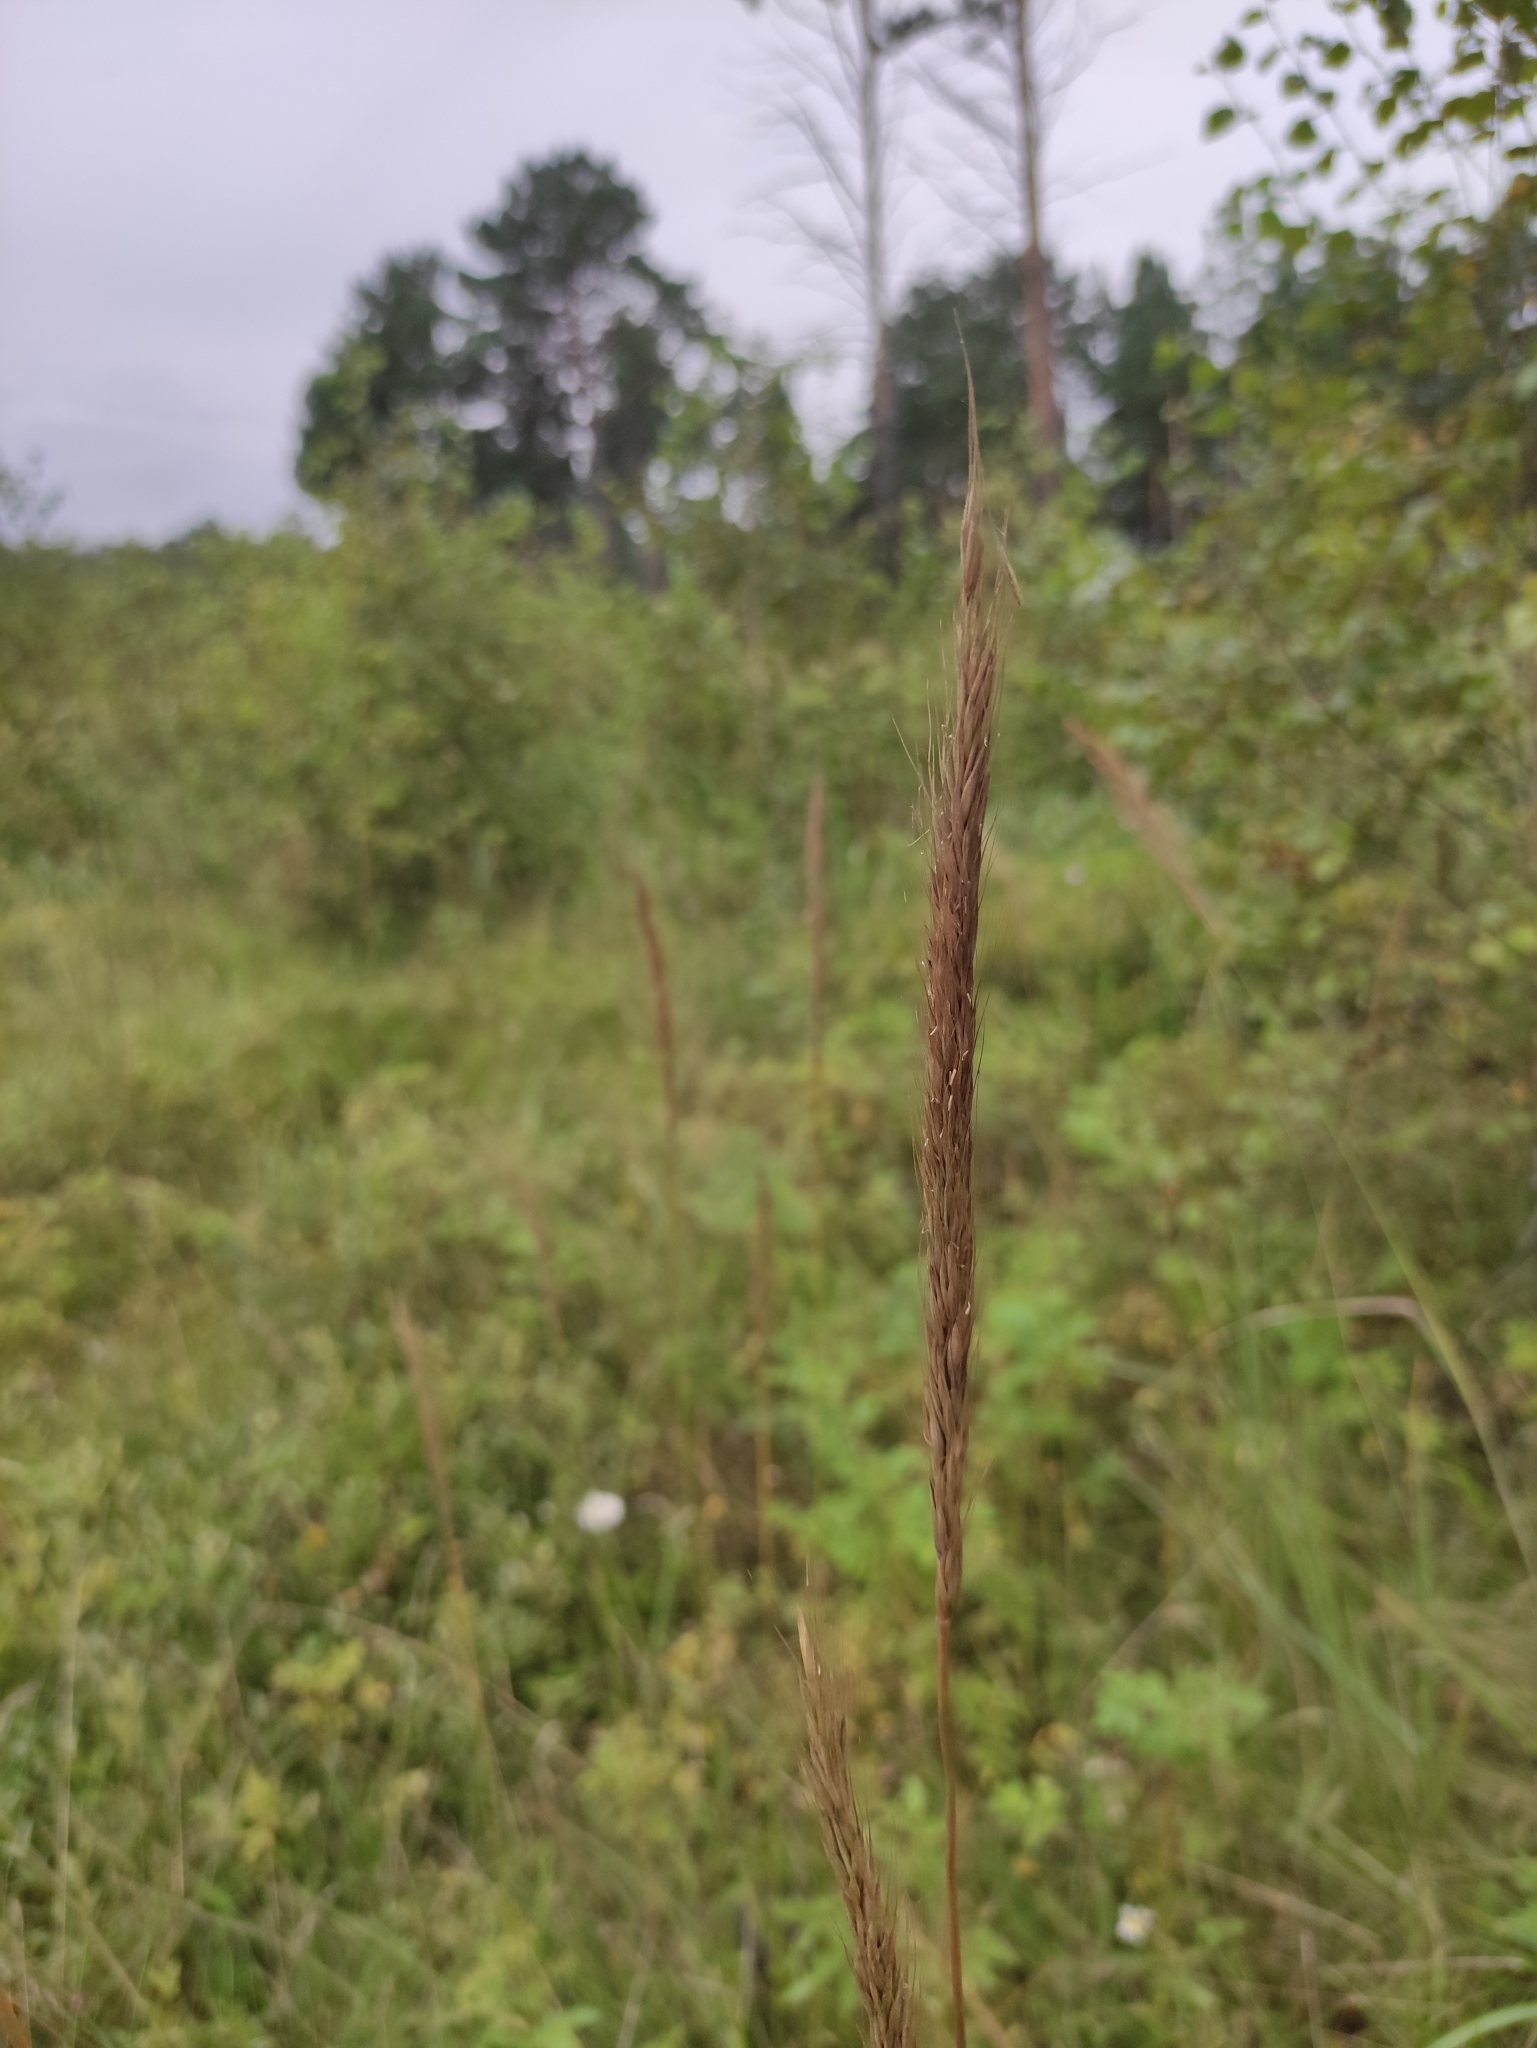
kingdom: Plantae
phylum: Tracheophyta
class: Liliopsida
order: Poales
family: Poaceae
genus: Elymus
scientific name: Elymus gmelinii
